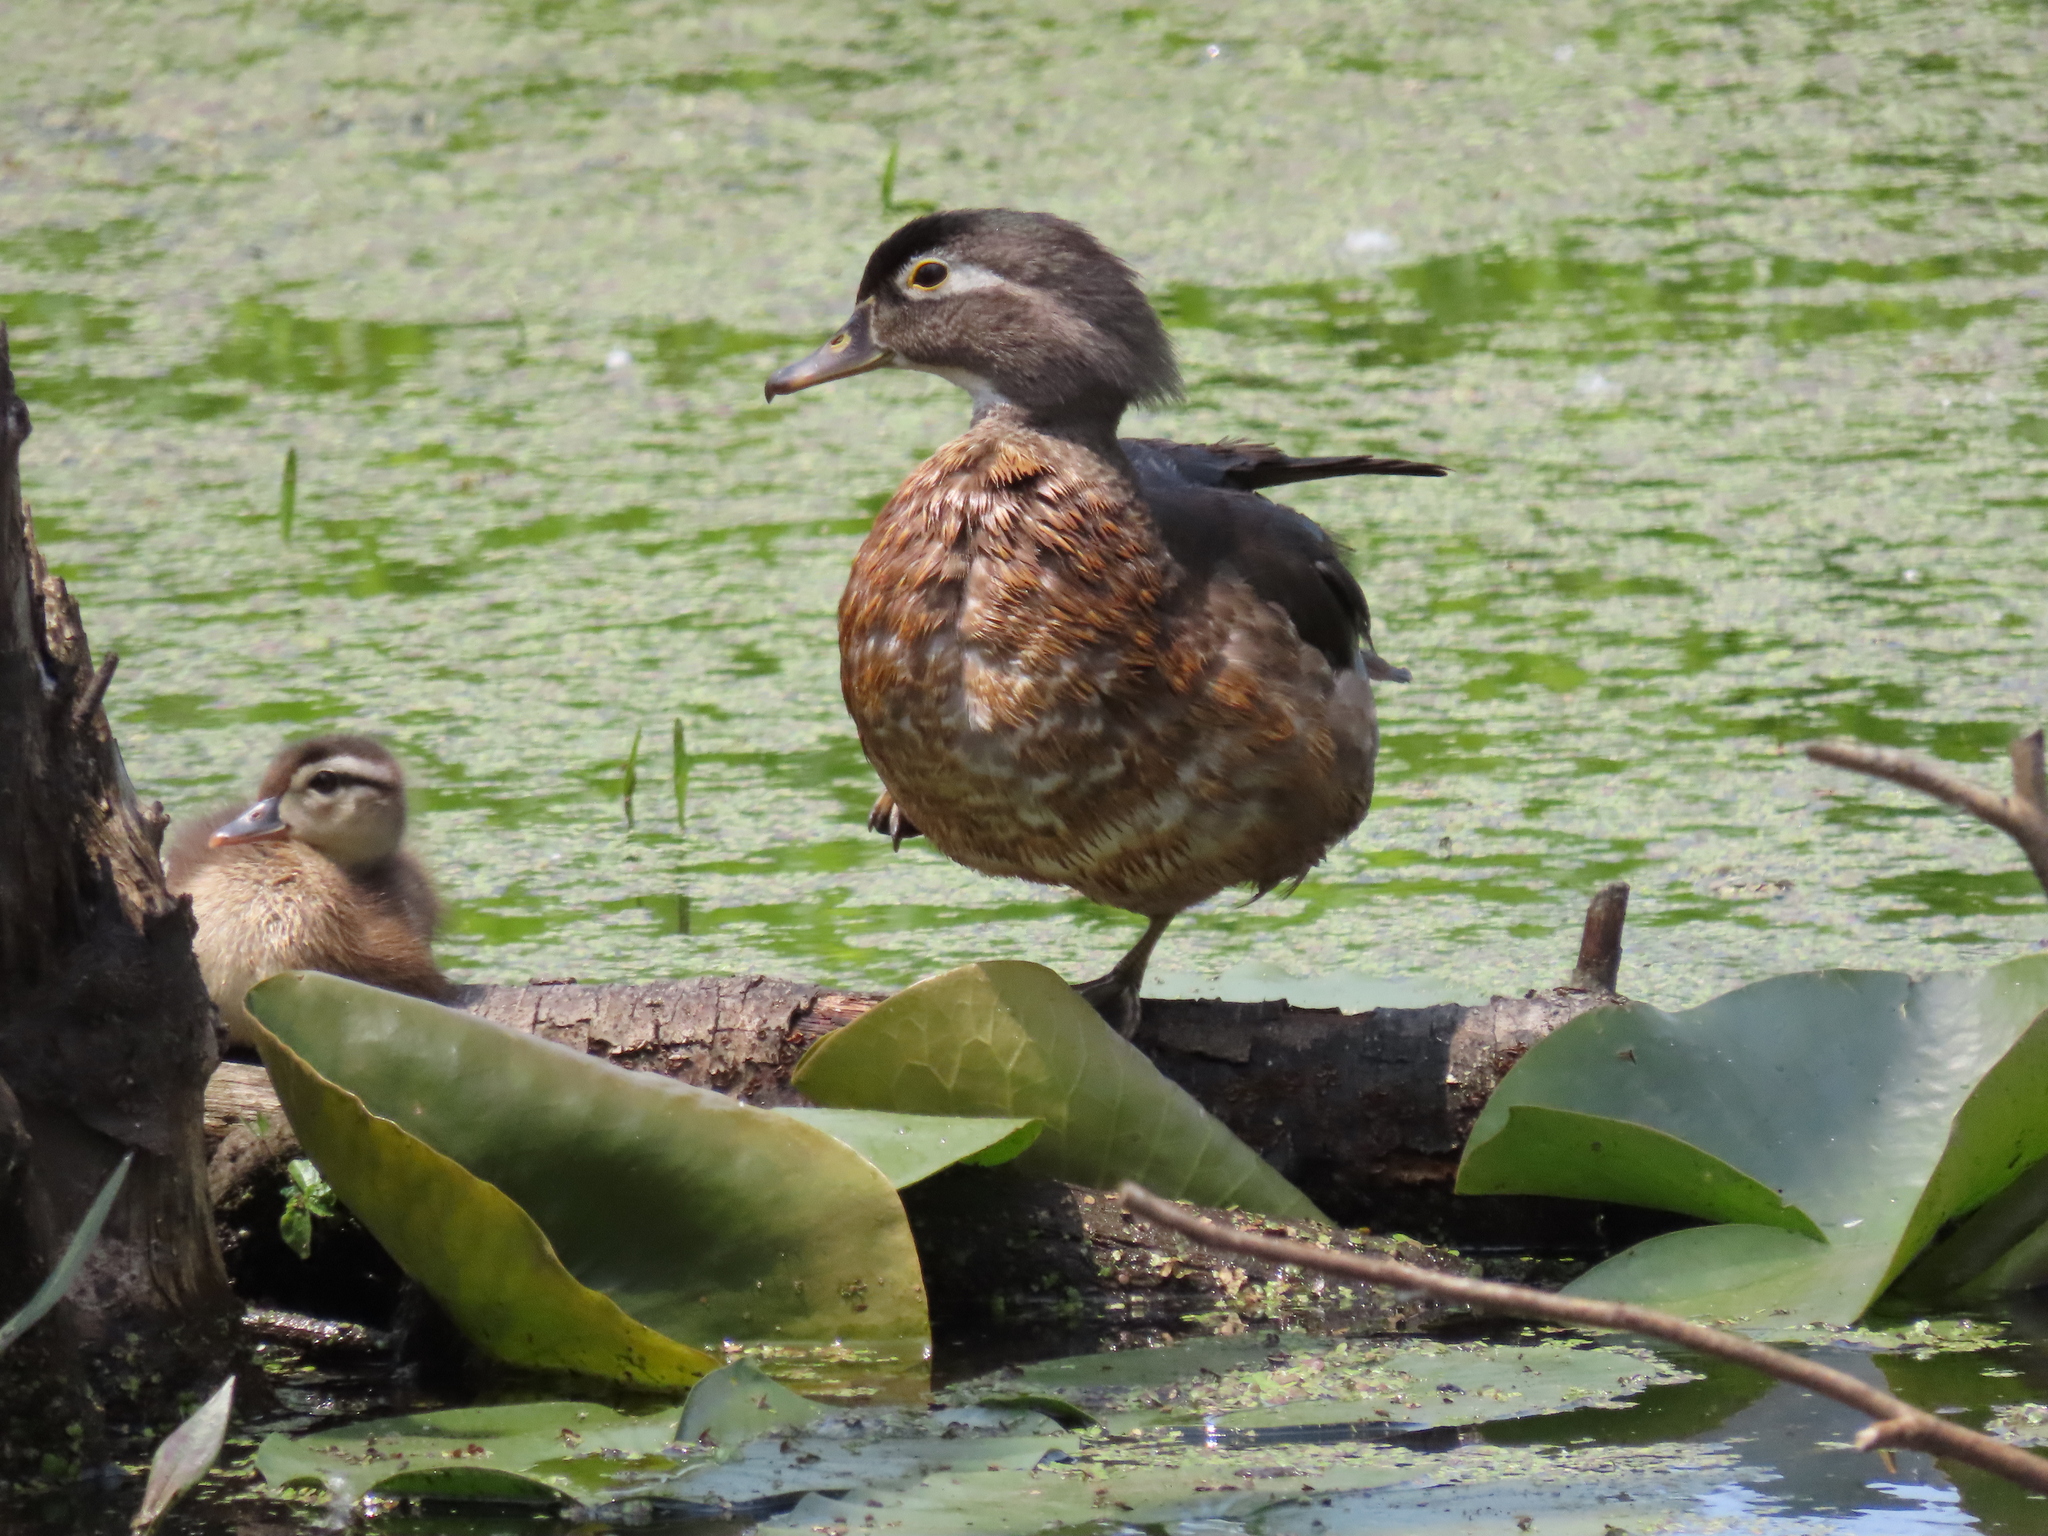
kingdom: Animalia
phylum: Chordata
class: Aves
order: Anseriformes
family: Anatidae
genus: Aix
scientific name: Aix sponsa
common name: Wood duck
